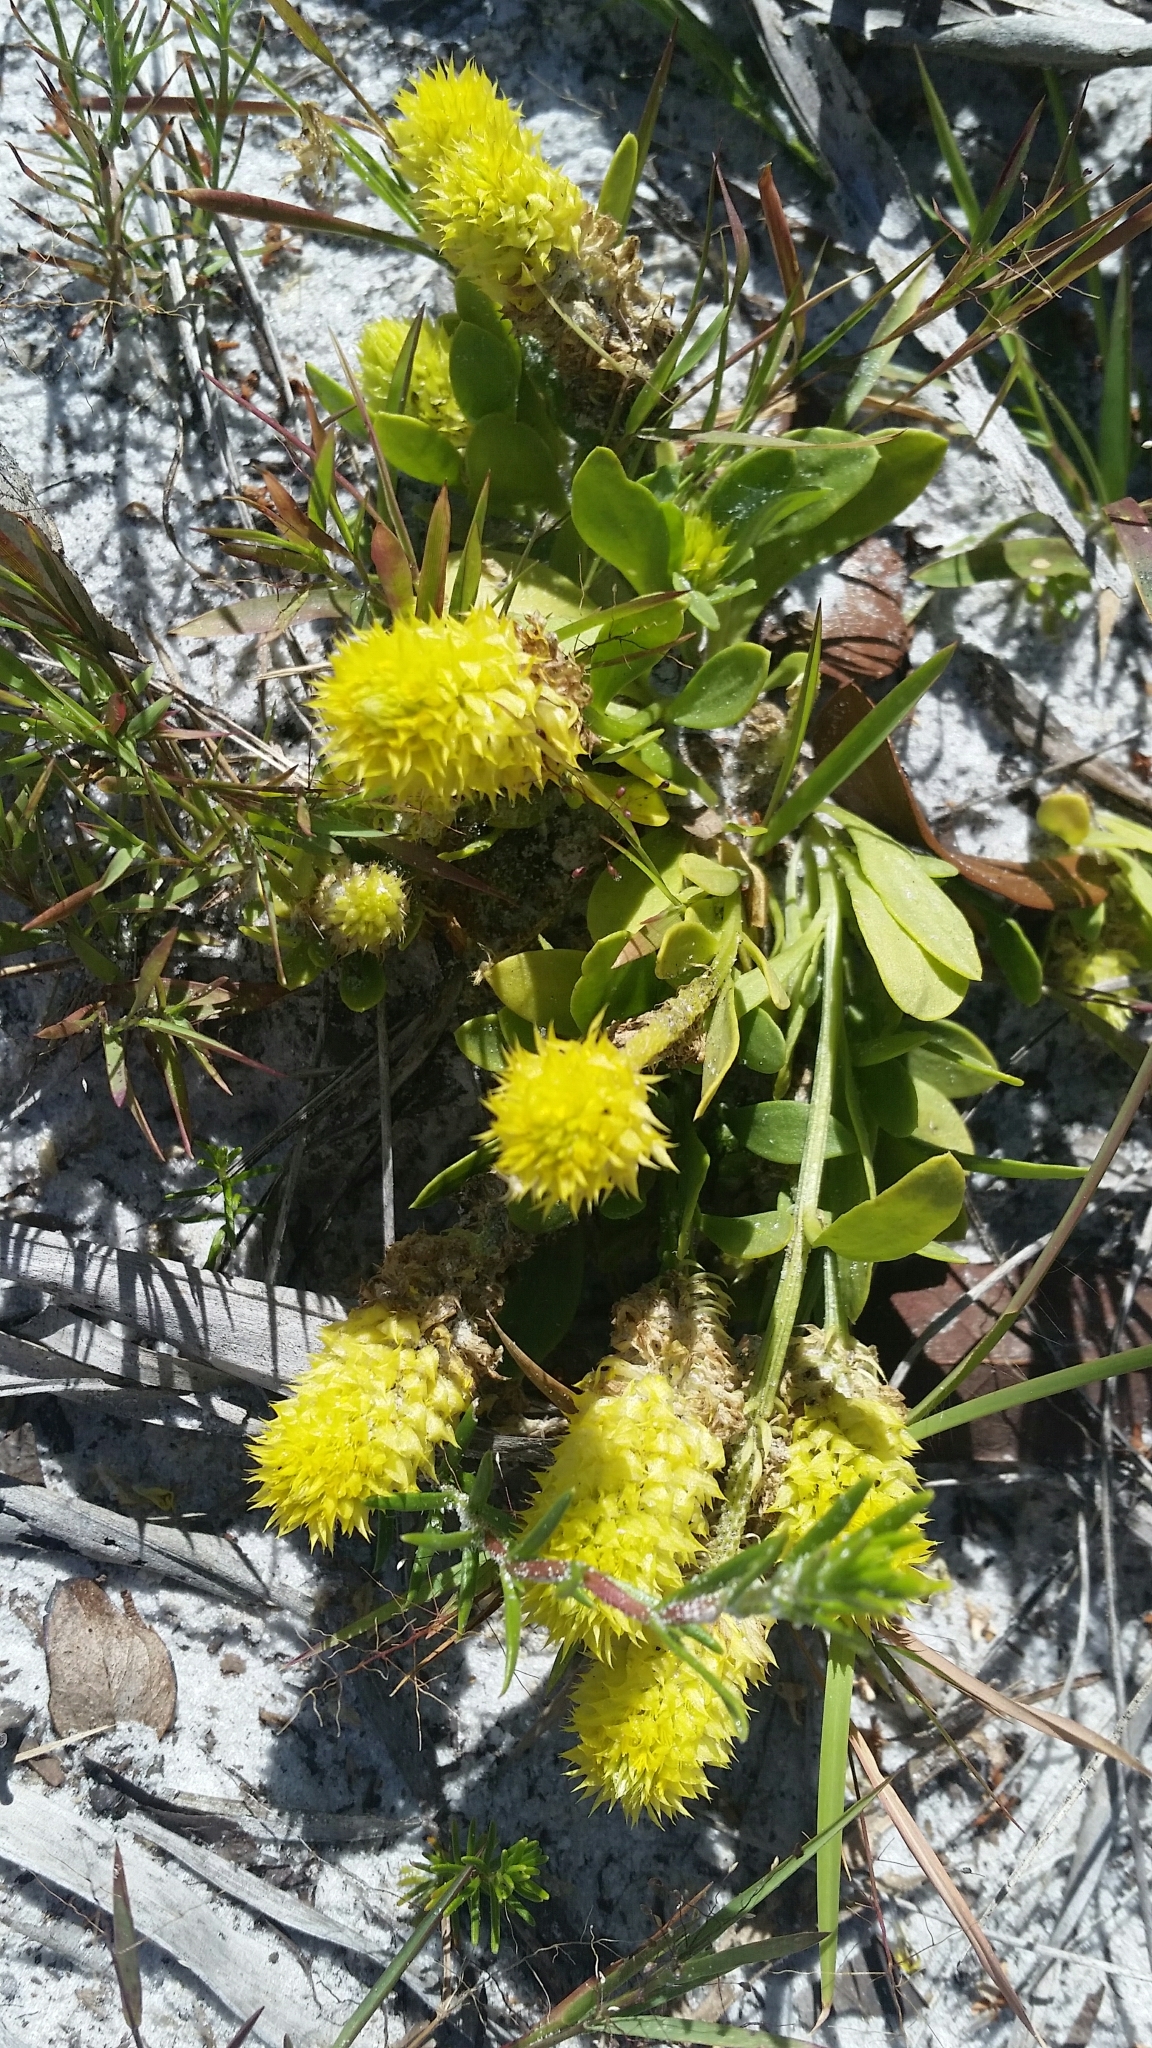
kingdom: Plantae
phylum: Tracheophyta
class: Magnoliopsida
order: Fabales
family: Polygalaceae
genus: Polygala
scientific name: Polygala nana
